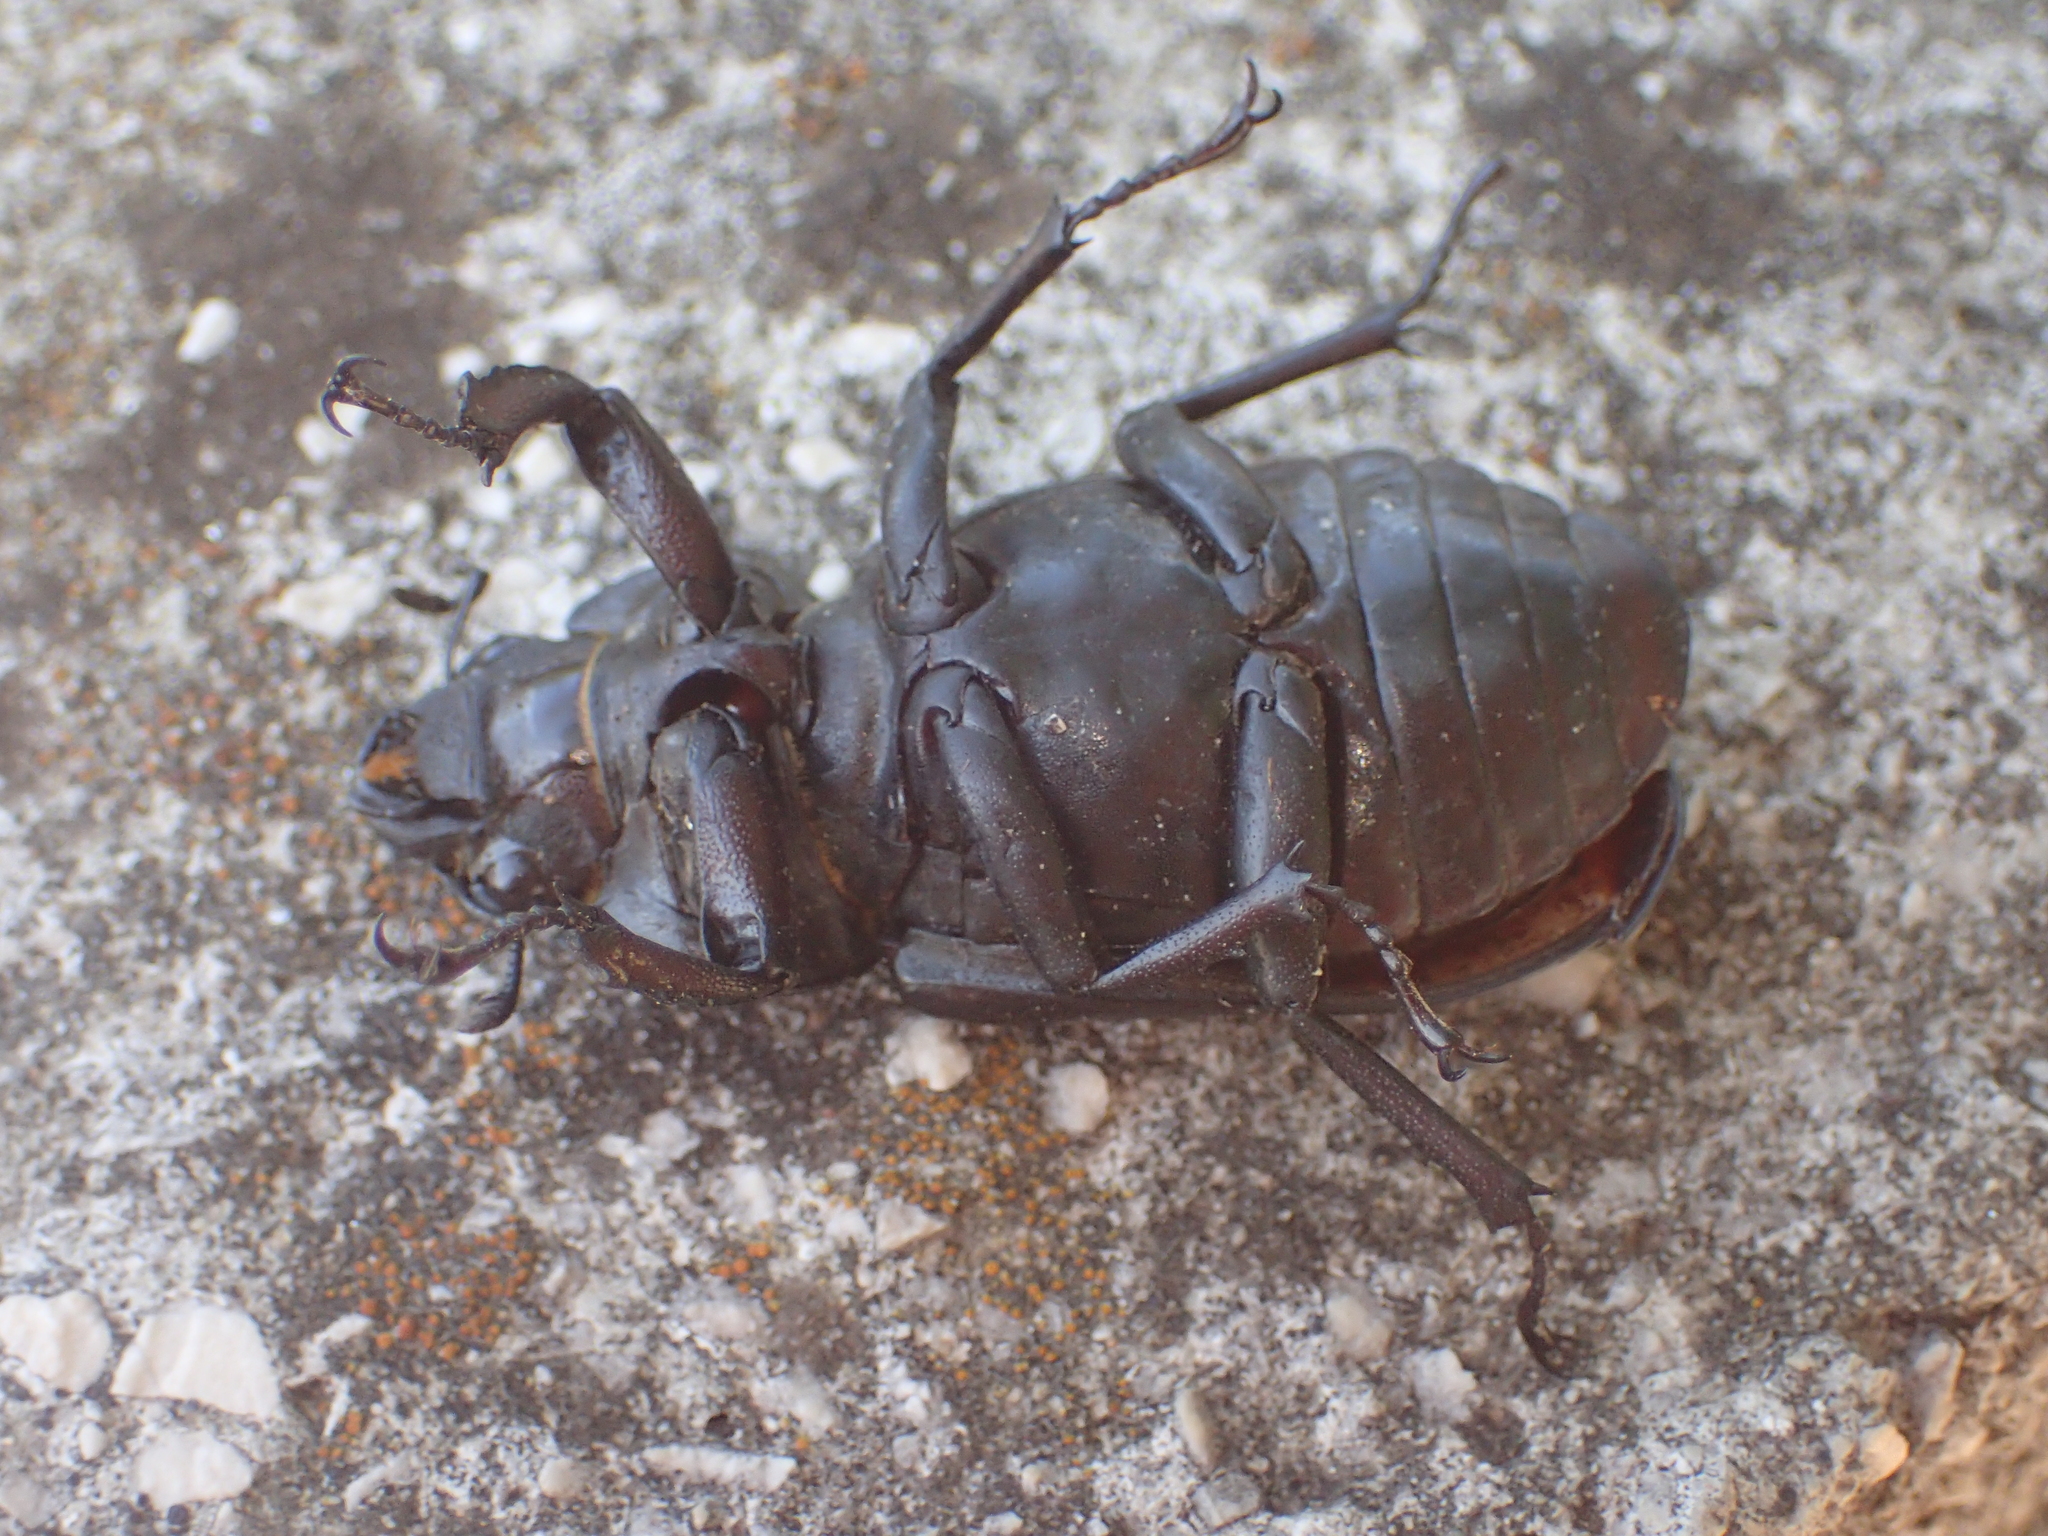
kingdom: Animalia
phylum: Arthropoda
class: Insecta
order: Coleoptera
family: Lucanidae
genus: Lucanus
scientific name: Lucanus cervus
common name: Stag beetle
